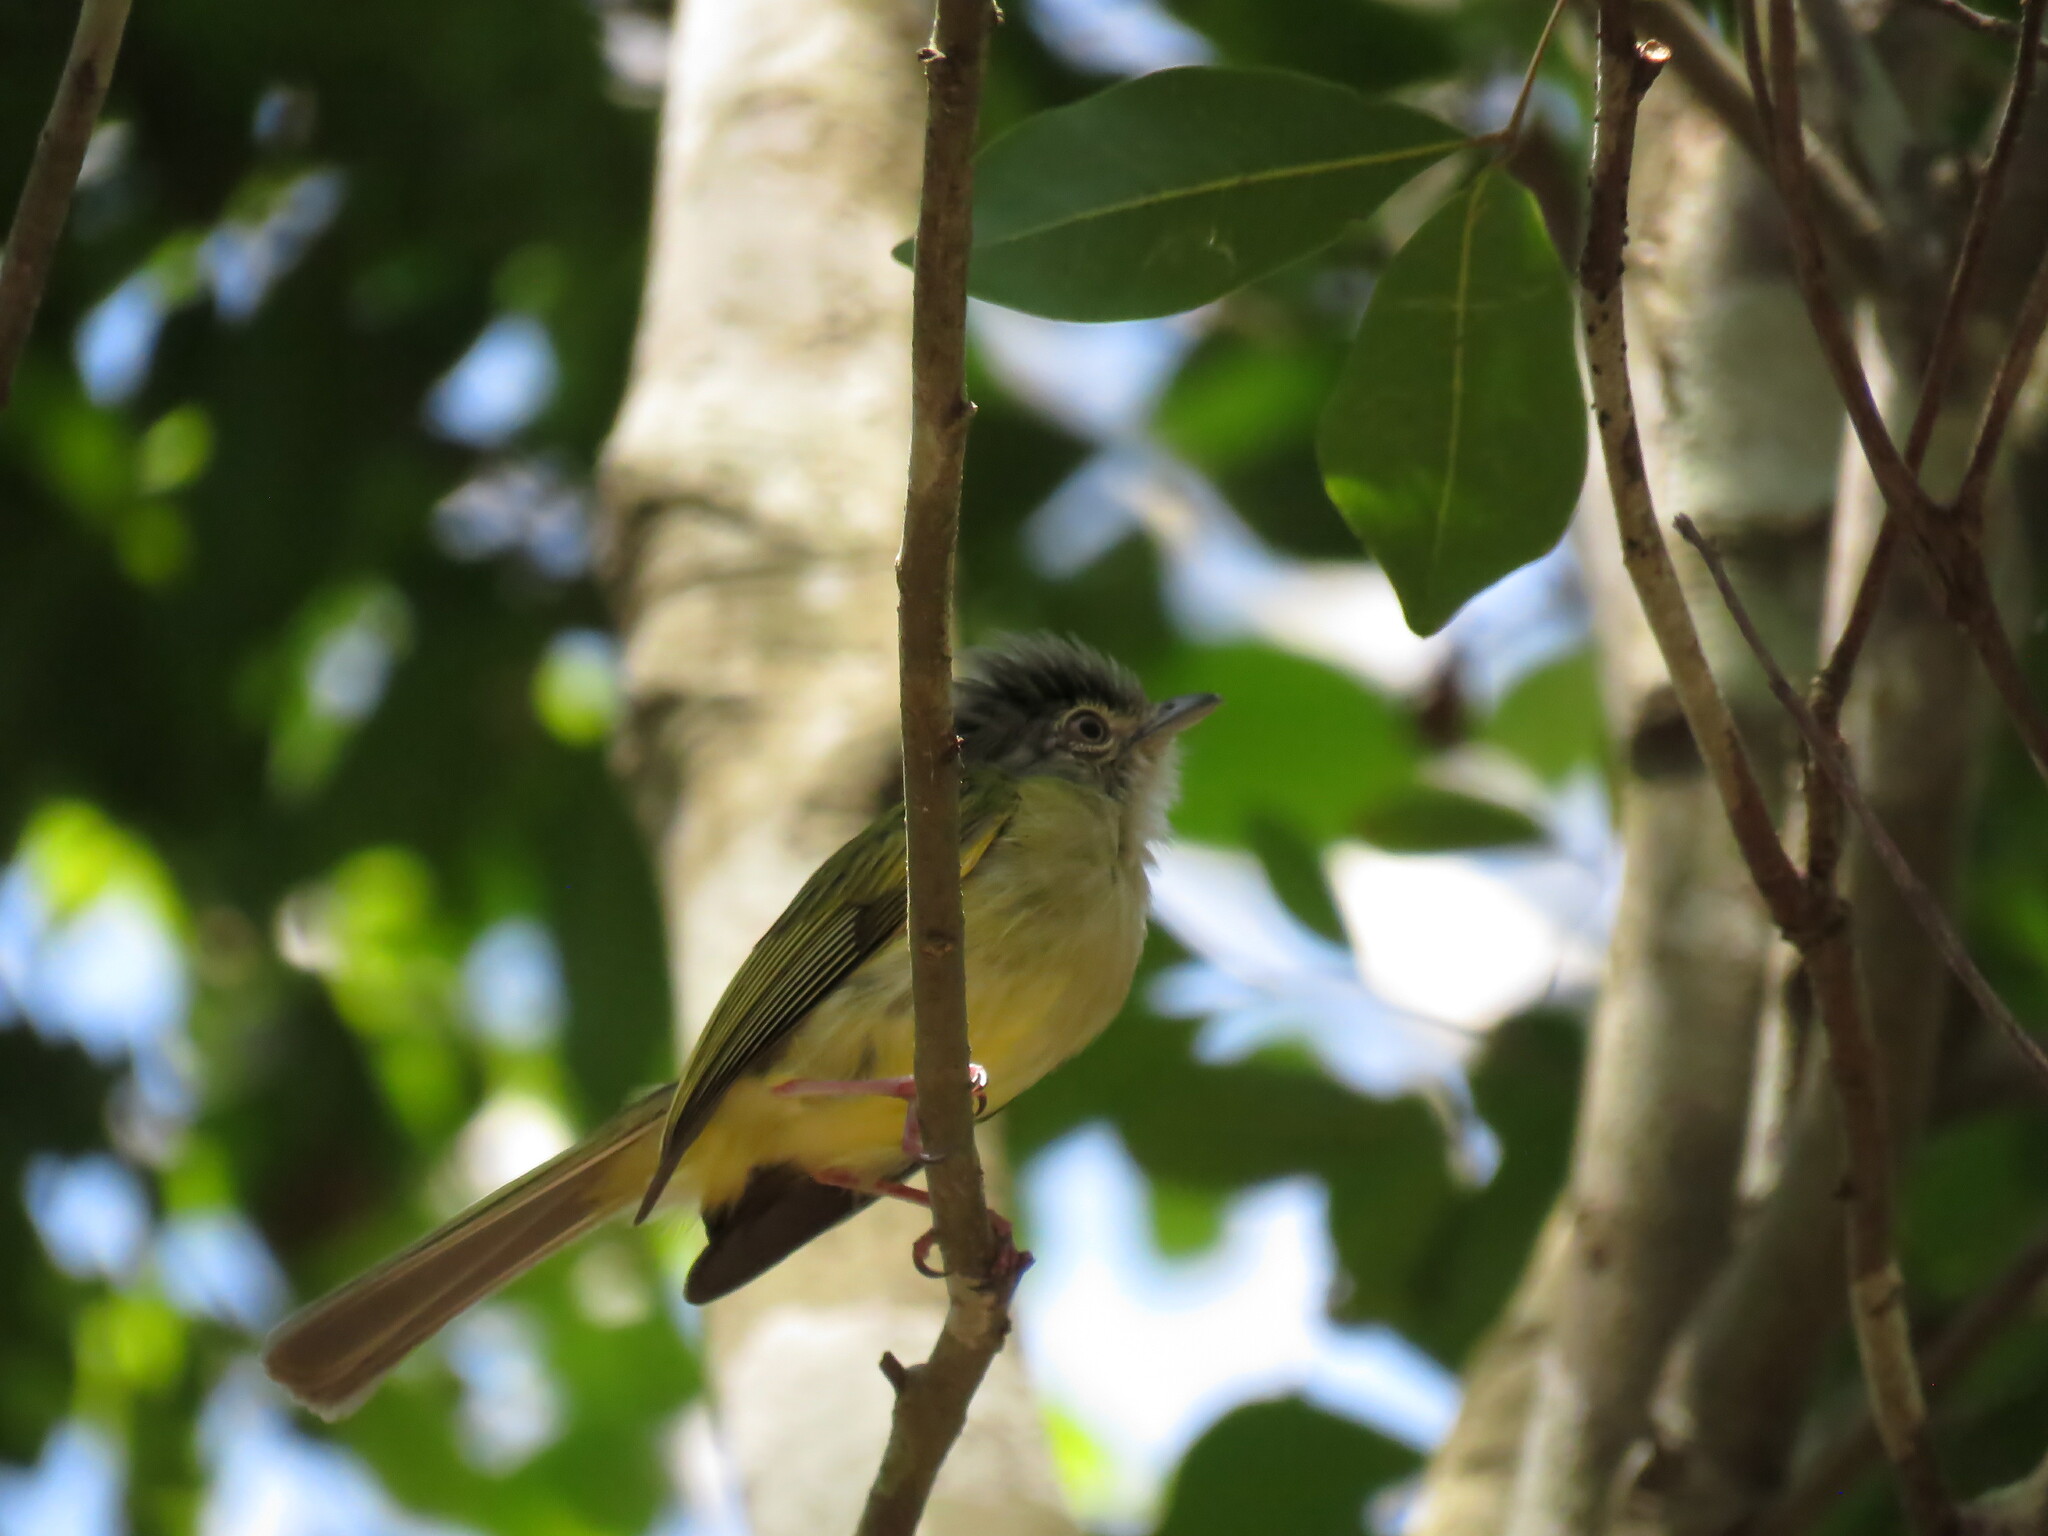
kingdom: Animalia
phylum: Chordata
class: Aves
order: Passeriformes
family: Tyrannidae
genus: Tolmomyias
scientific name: Tolmomyias sulphurescens
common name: Yellow-olive flycatcher
